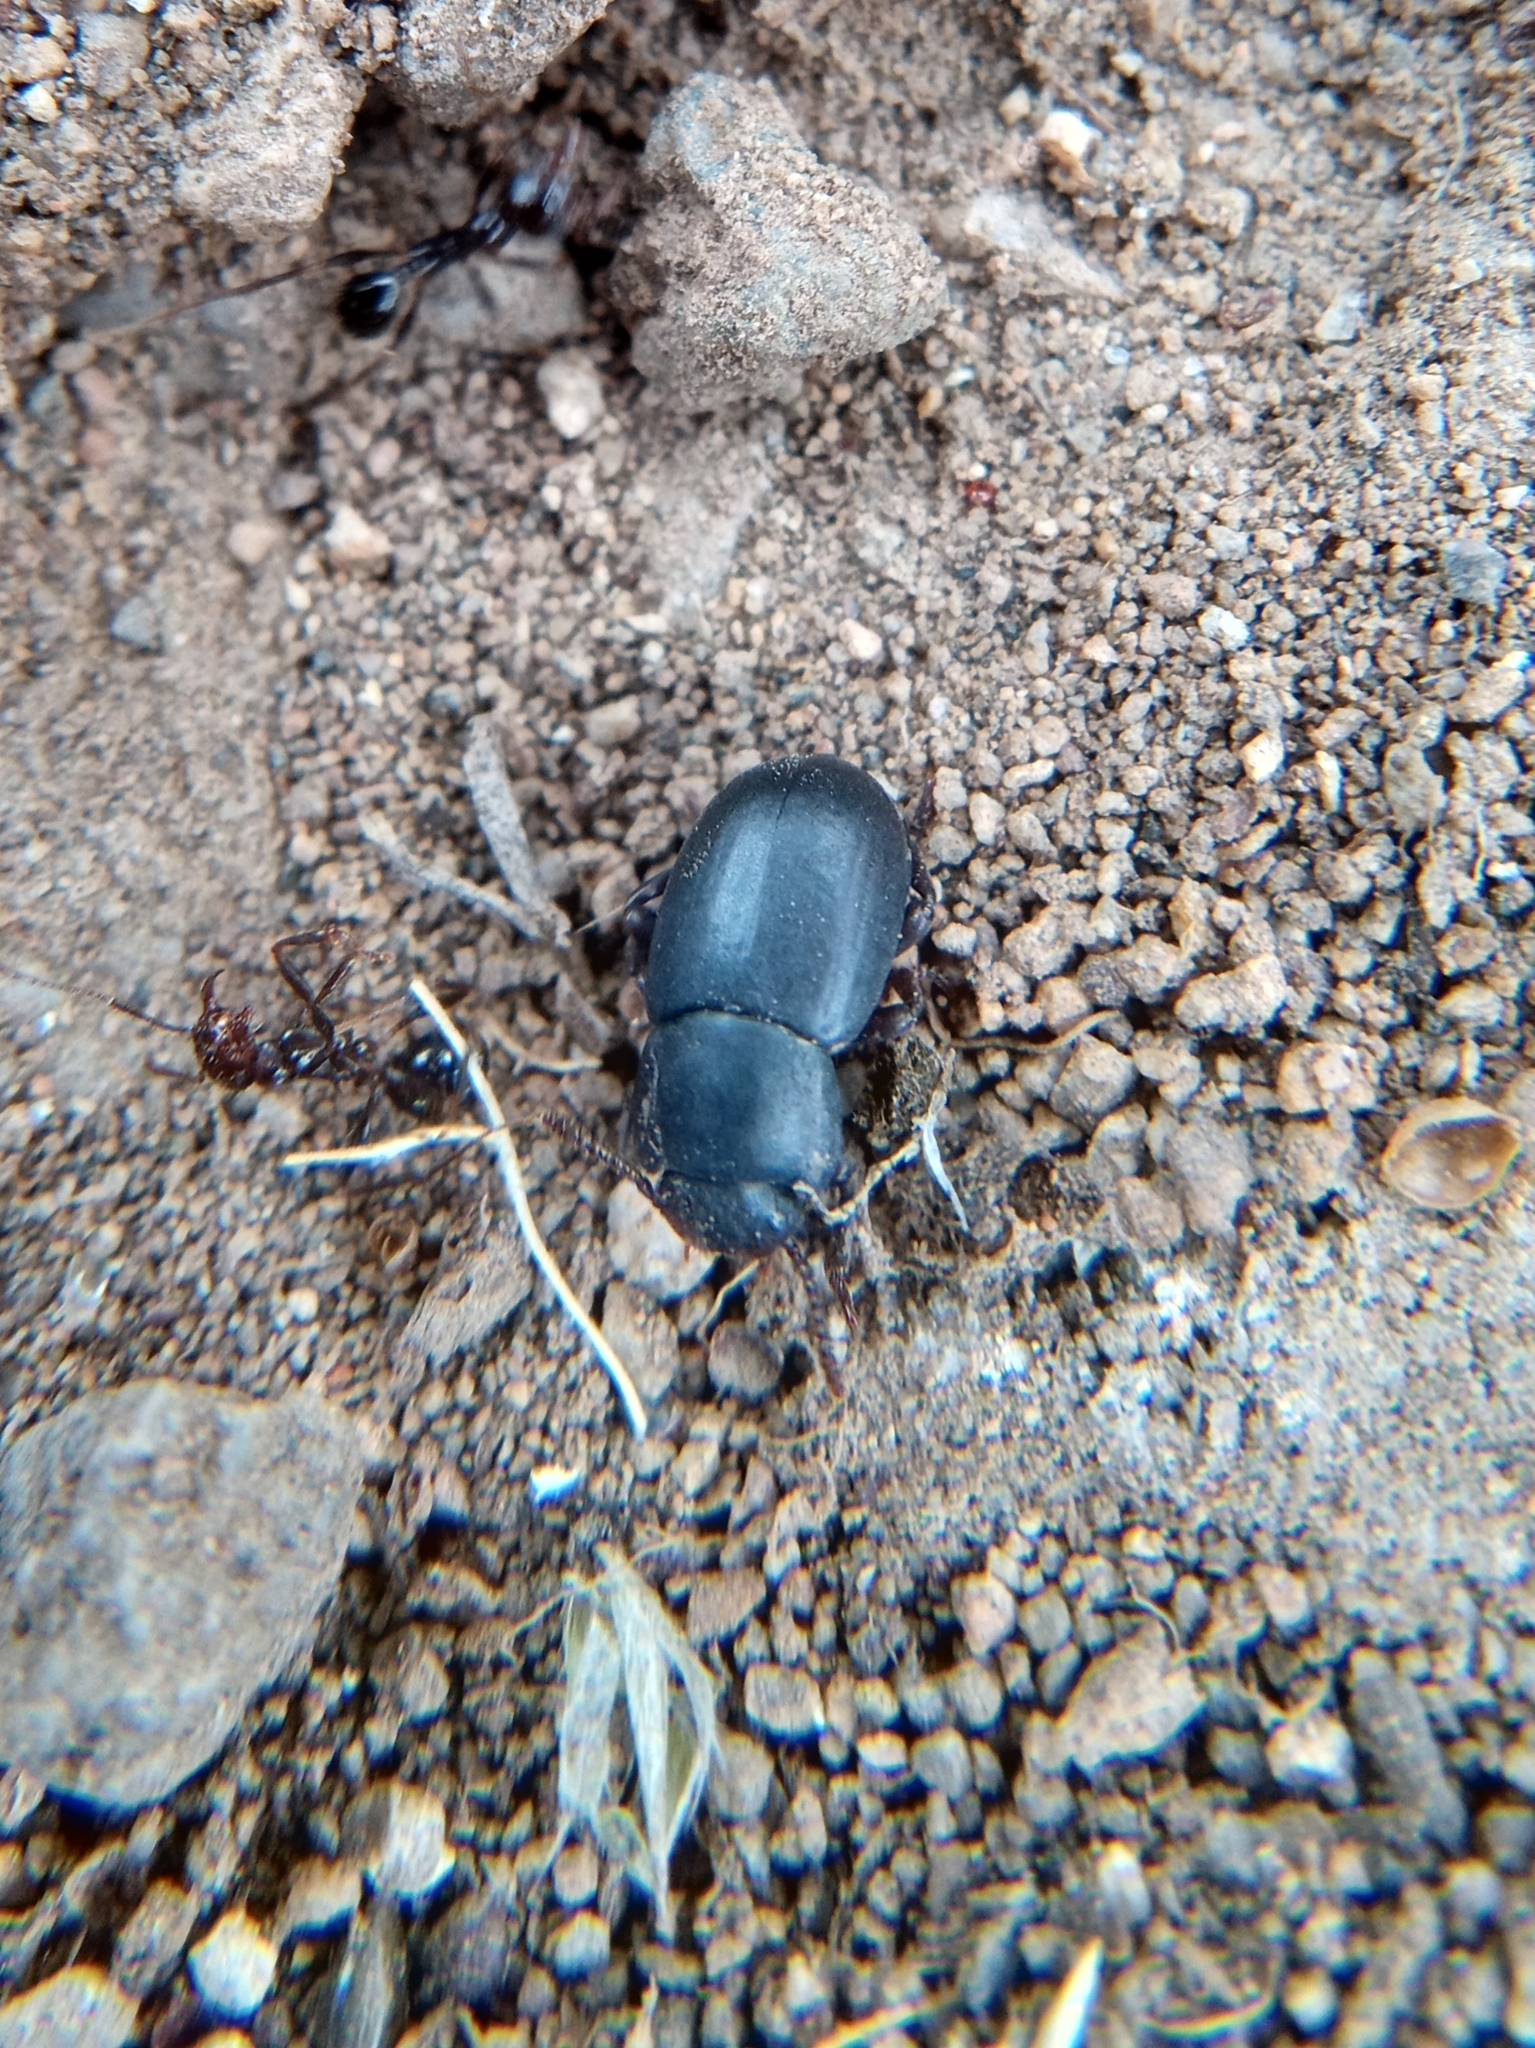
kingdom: Animalia
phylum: Arthropoda
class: Insecta
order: Coleoptera
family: Tenebrionidae
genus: Conibius
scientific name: Conibius gagates
